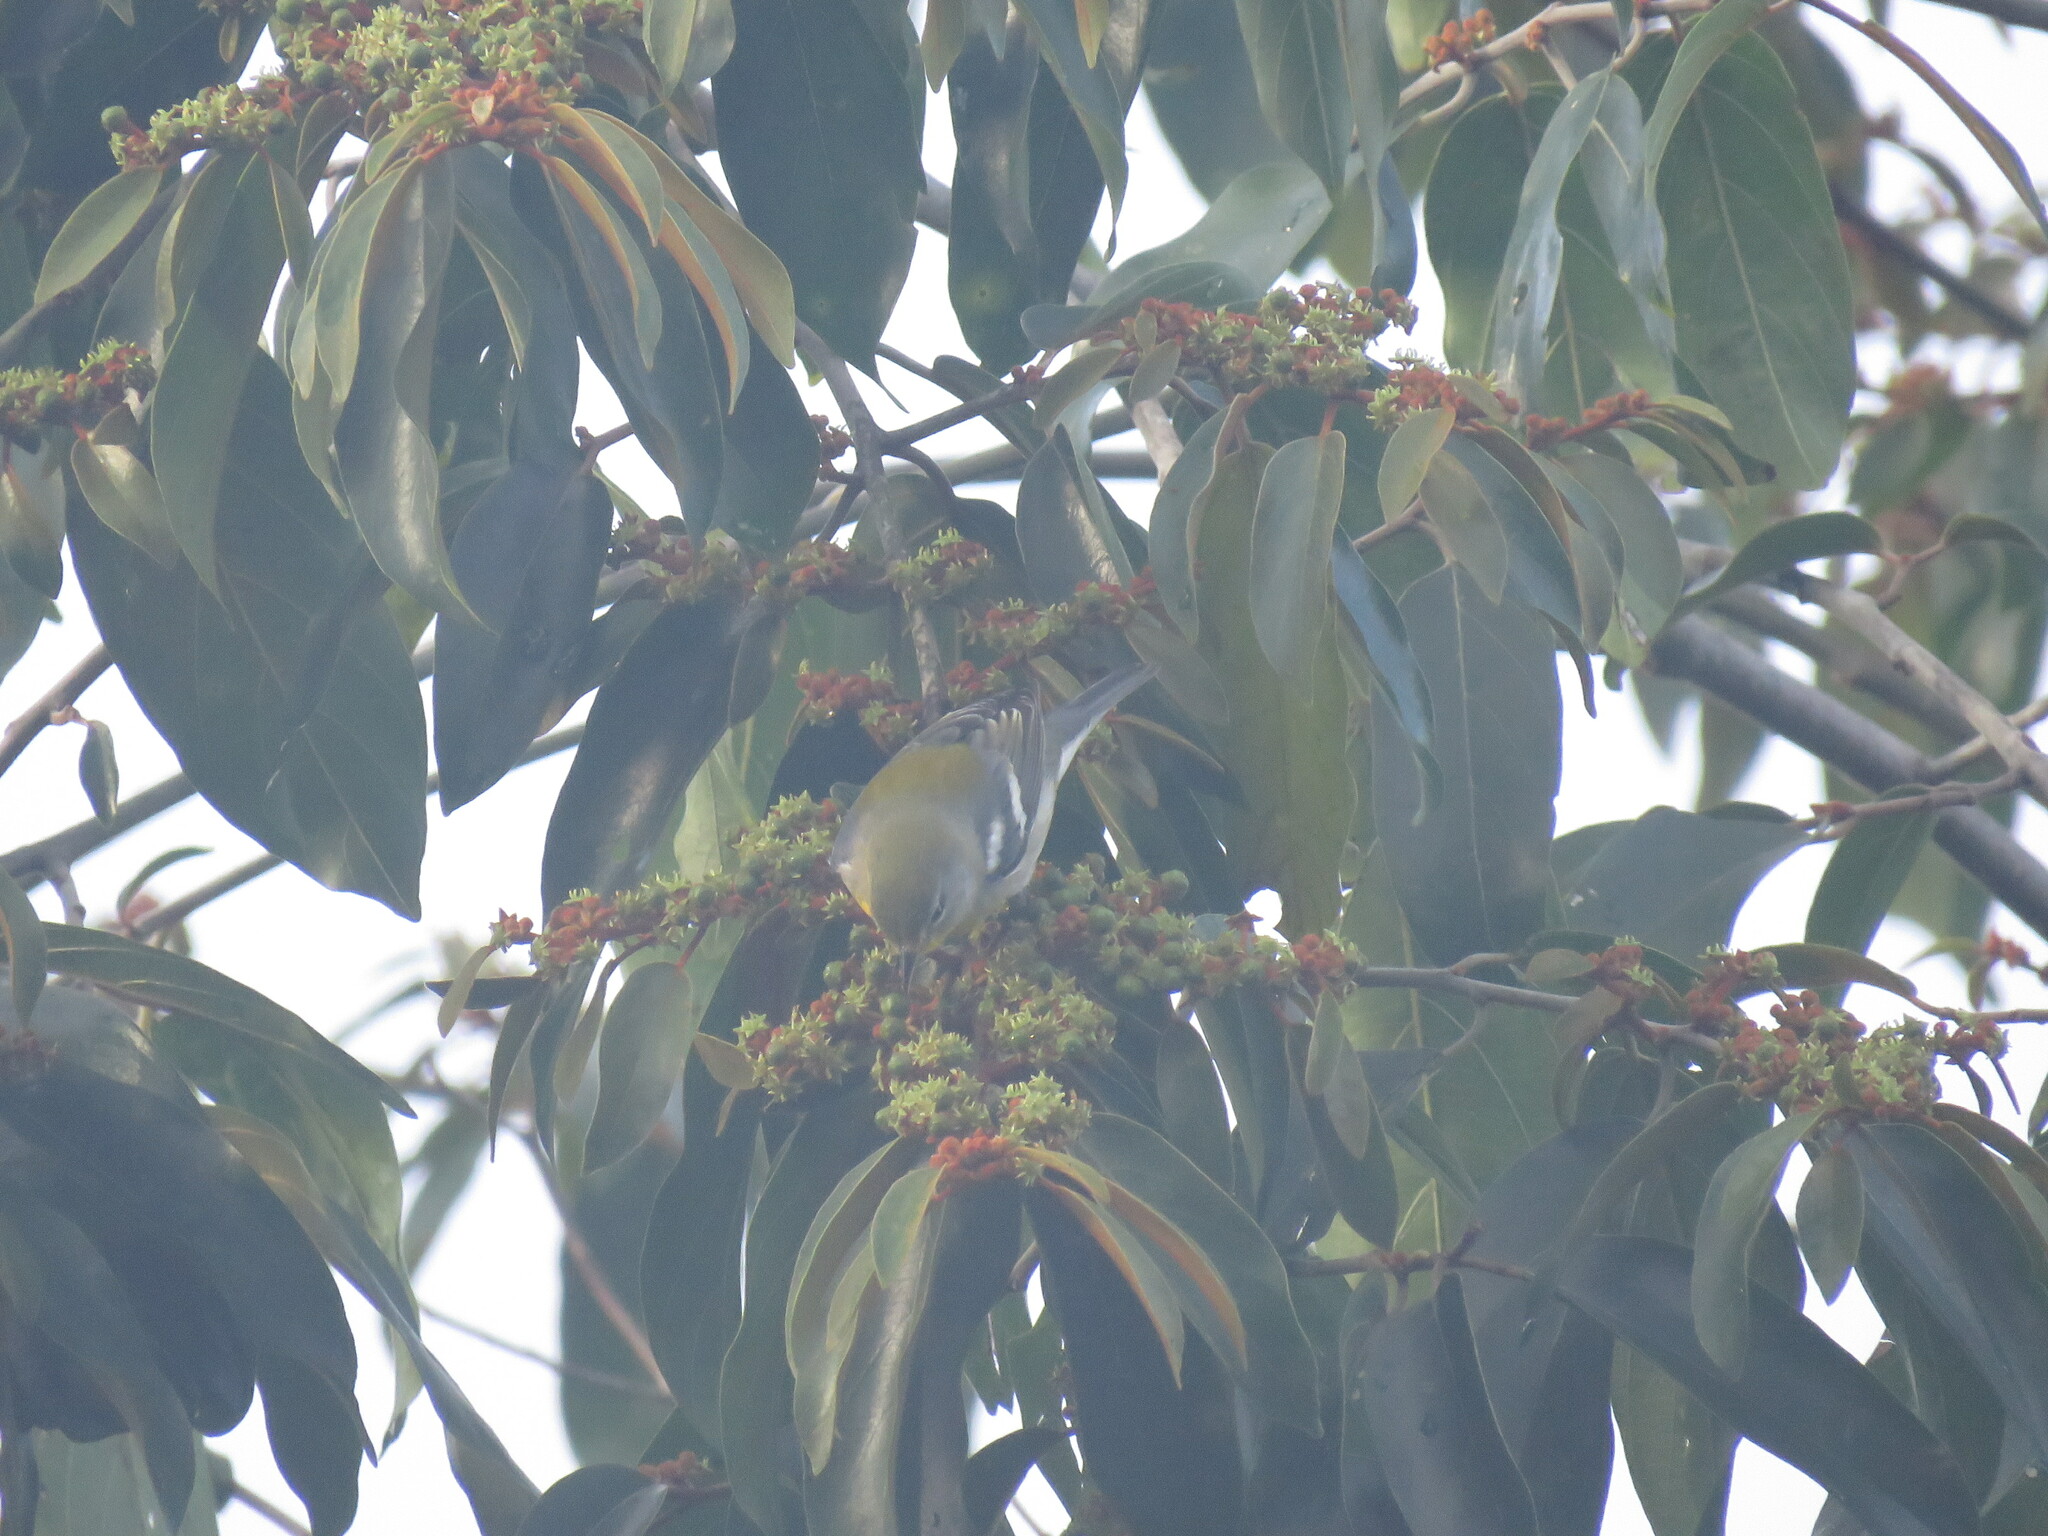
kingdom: Animalia
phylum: Chordata
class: Aves
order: Passeriformes
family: Parulidae
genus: Setophaga
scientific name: Setophaga americana
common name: Northern parula
